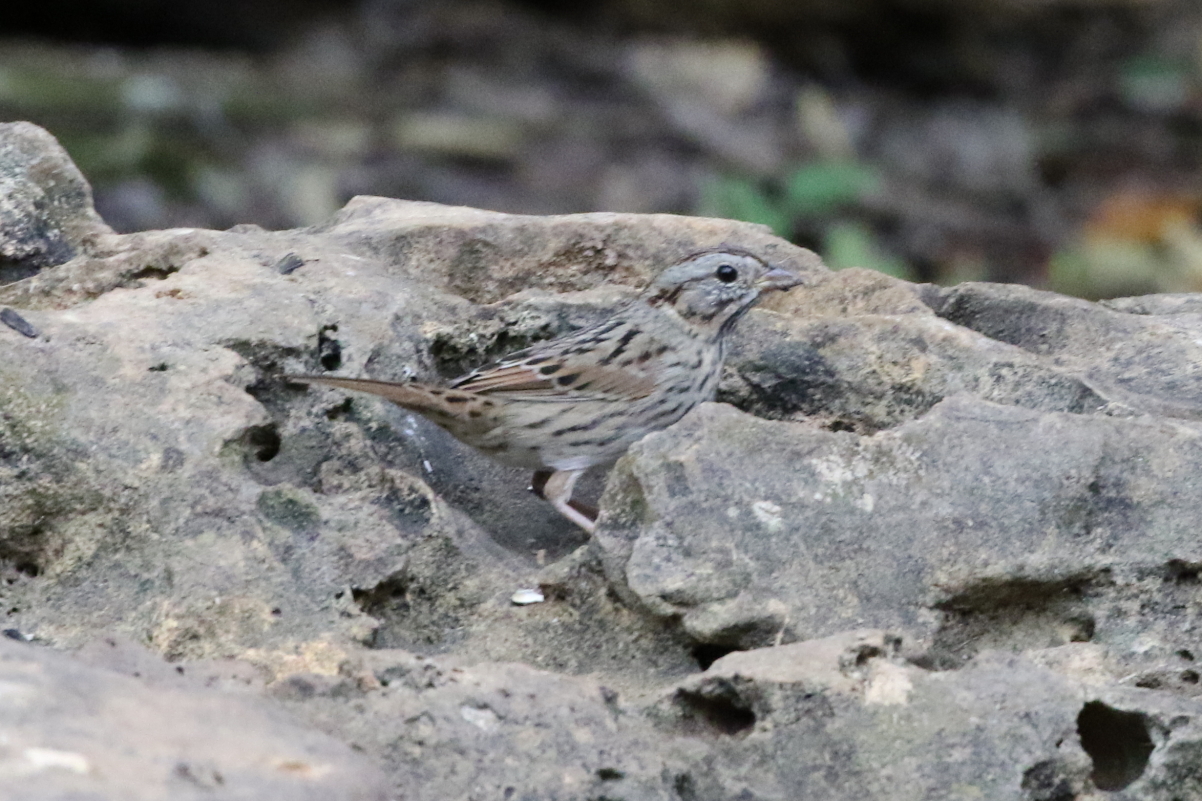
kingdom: Animalia
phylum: Chordata
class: Aves
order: Passeriformes
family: Passerellidae
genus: Melospiza
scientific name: Melospiza lincolnii
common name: Lincoln's sparrow
